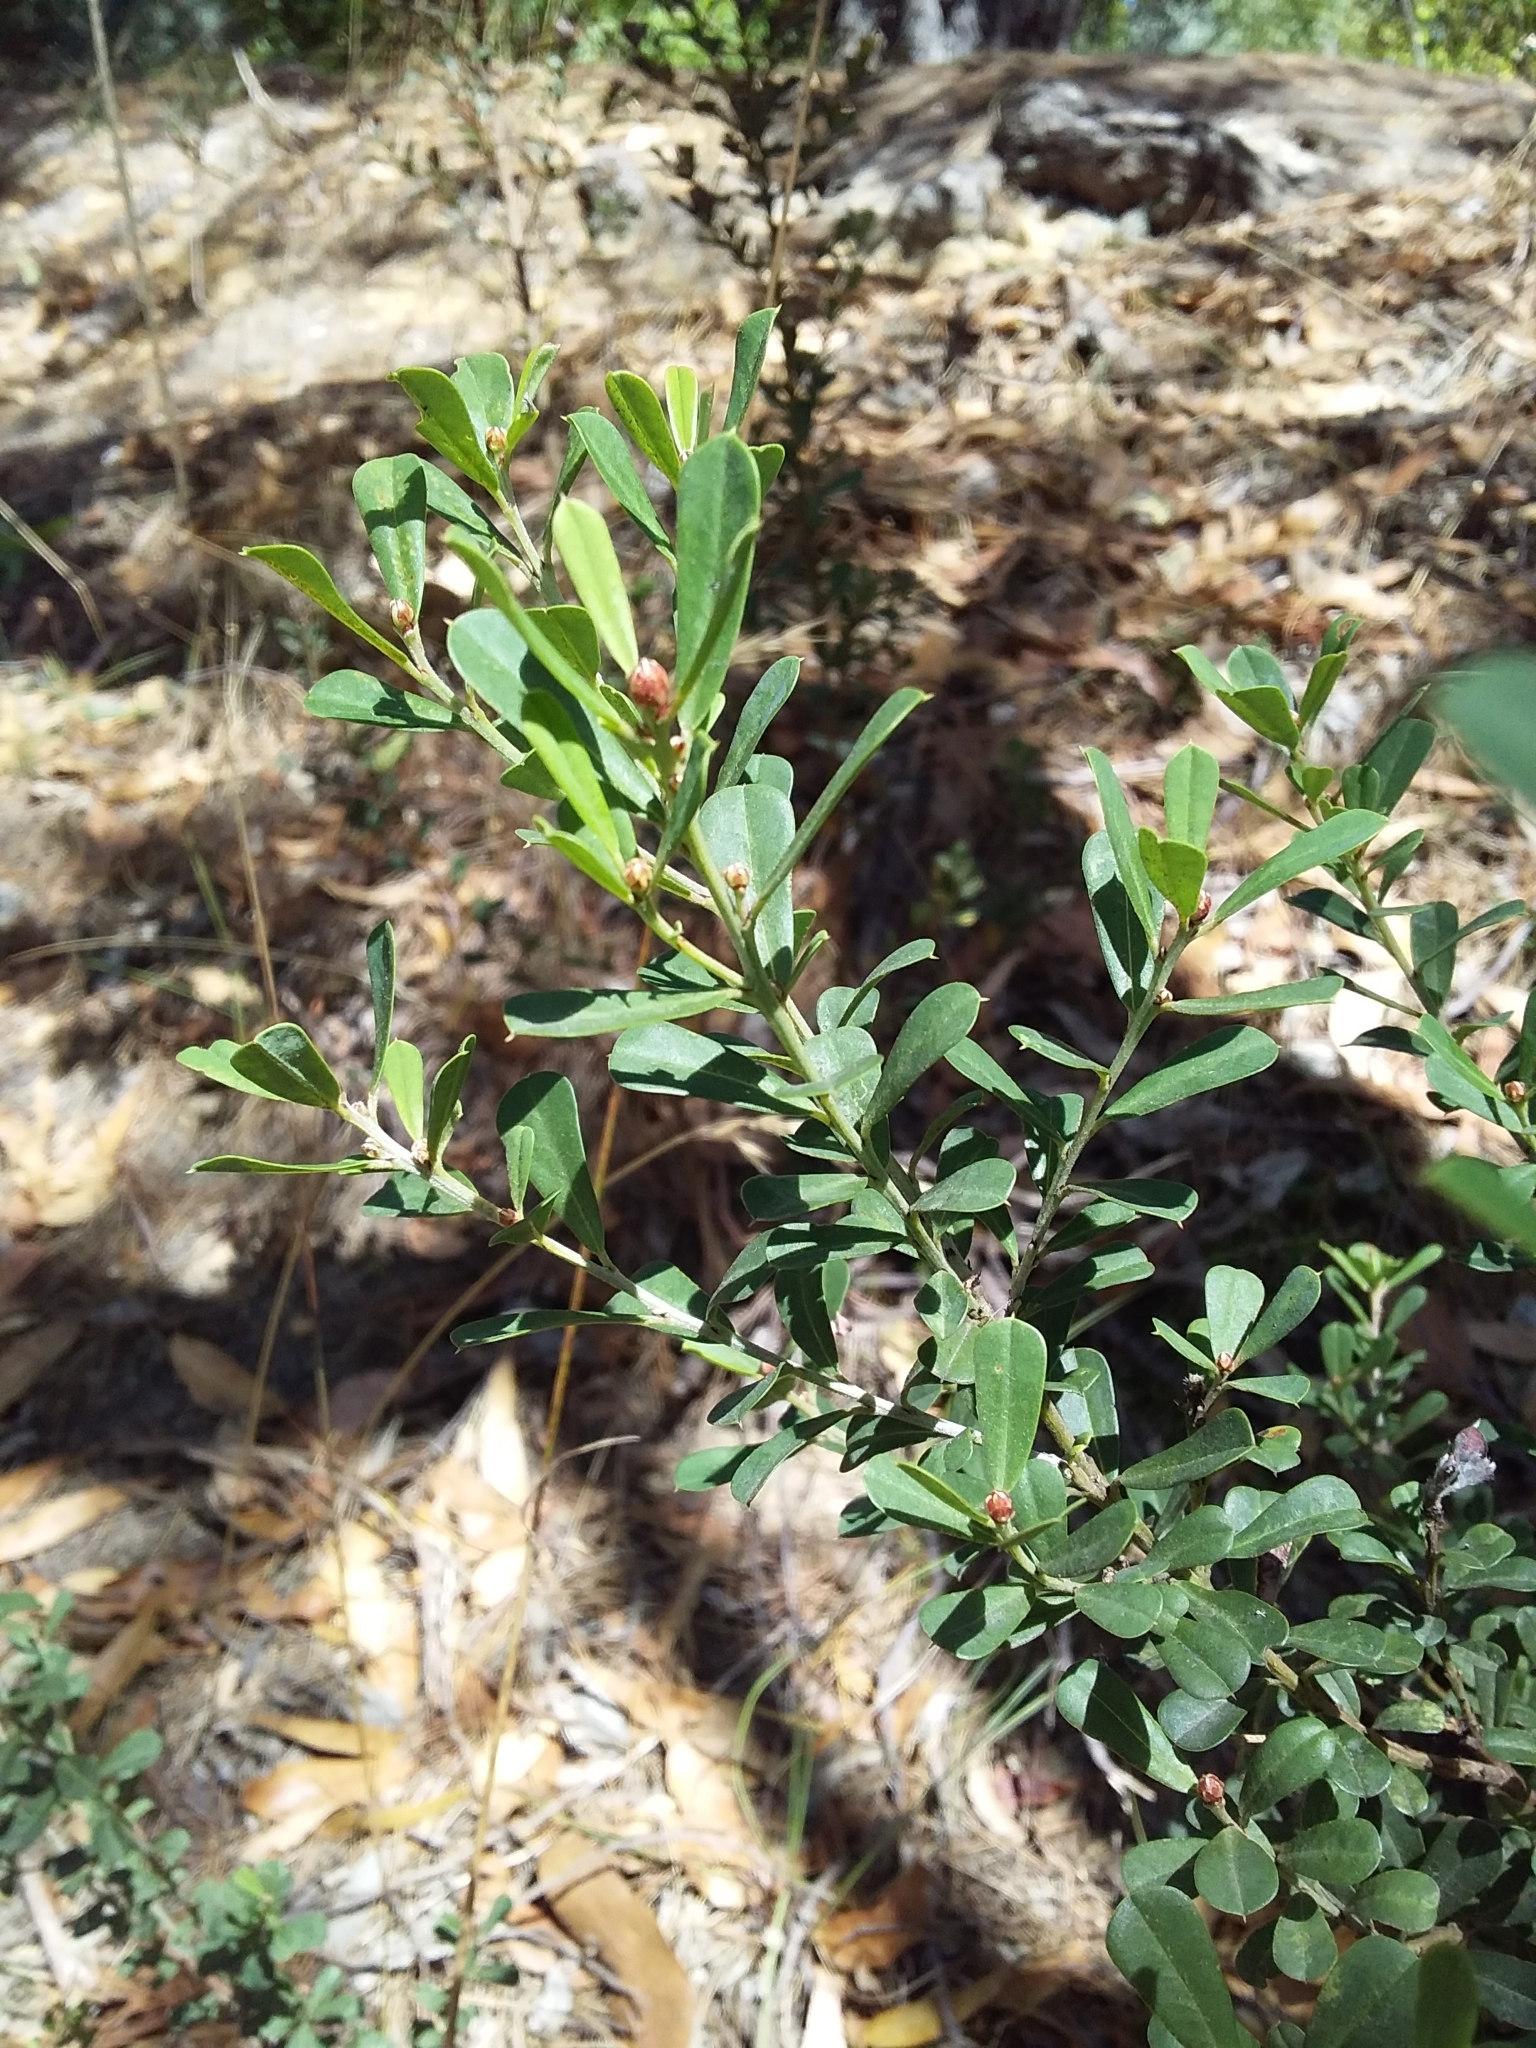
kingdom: Plantae
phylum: Tracheophyta
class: Magnoliopsida
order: Fabales
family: Fabaceae
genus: Pultenaea
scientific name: Pultenaea daphnoides
